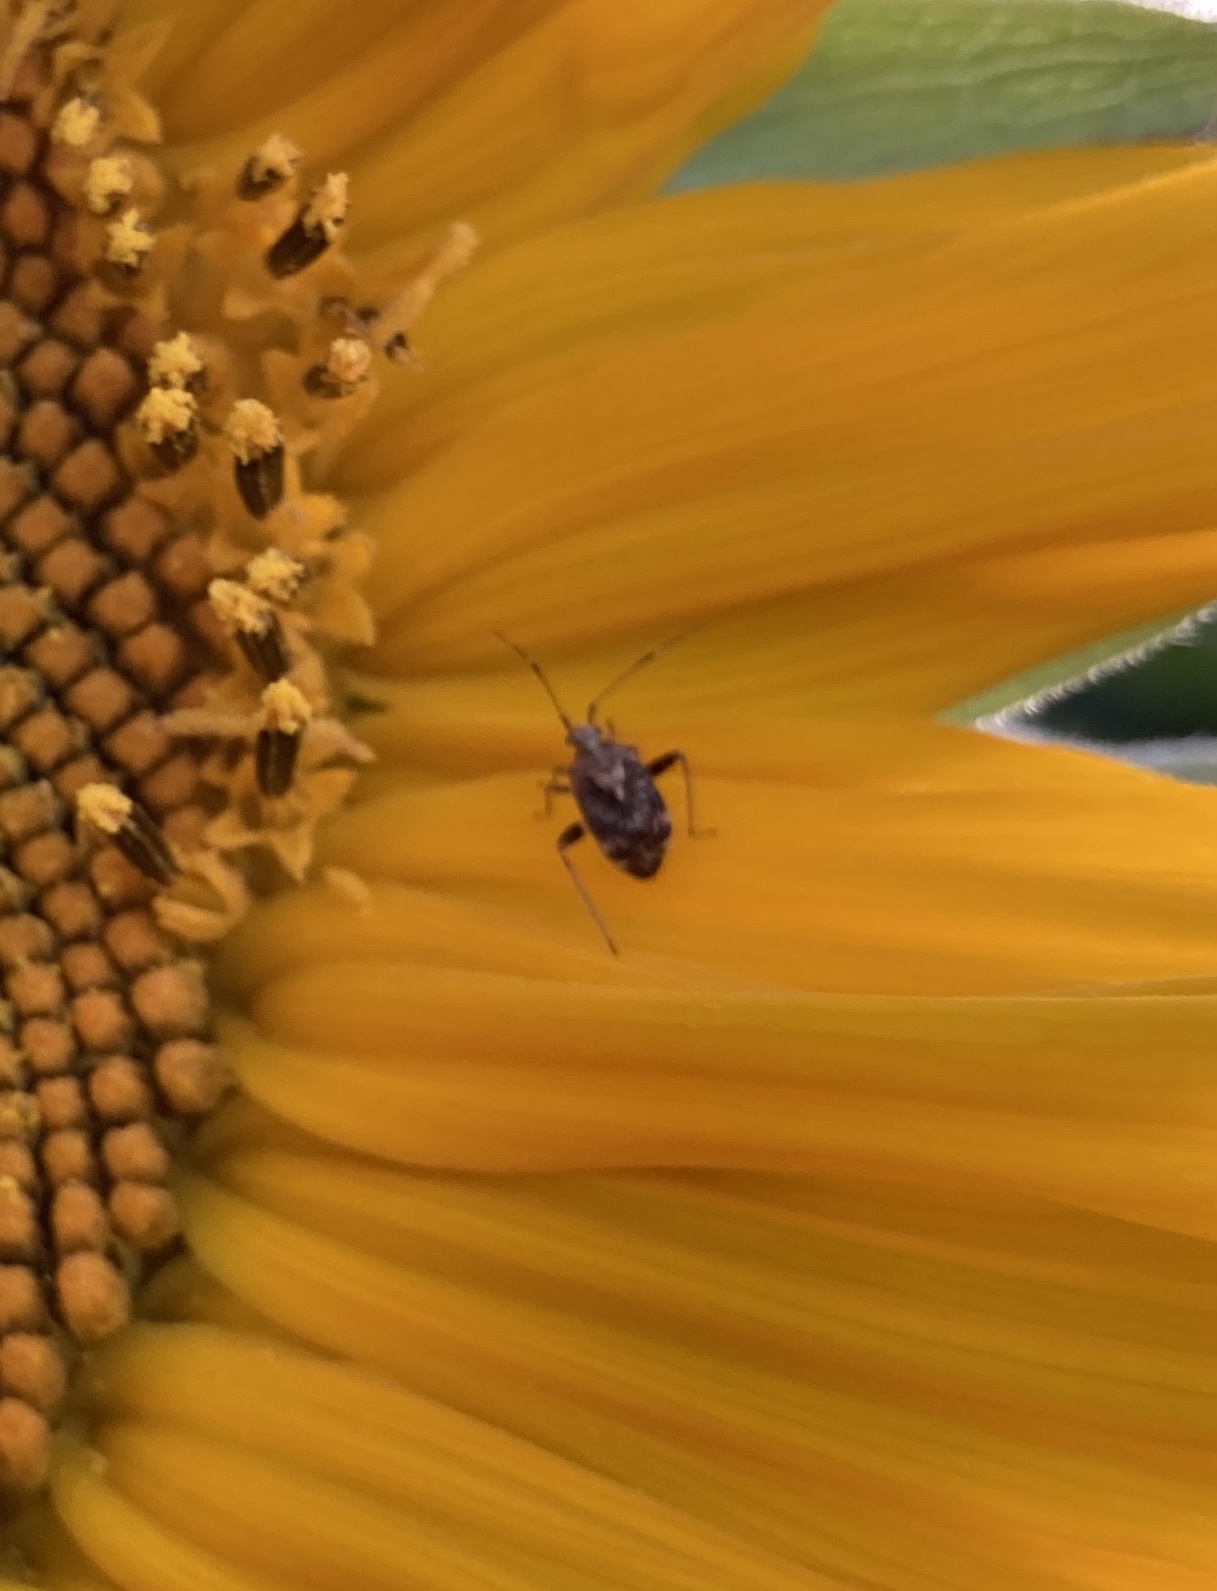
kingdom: Animalia
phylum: Arthropoda
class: Insecta
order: Hemiptera
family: Miridae
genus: Sidnia
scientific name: Sidnia kinbergi
